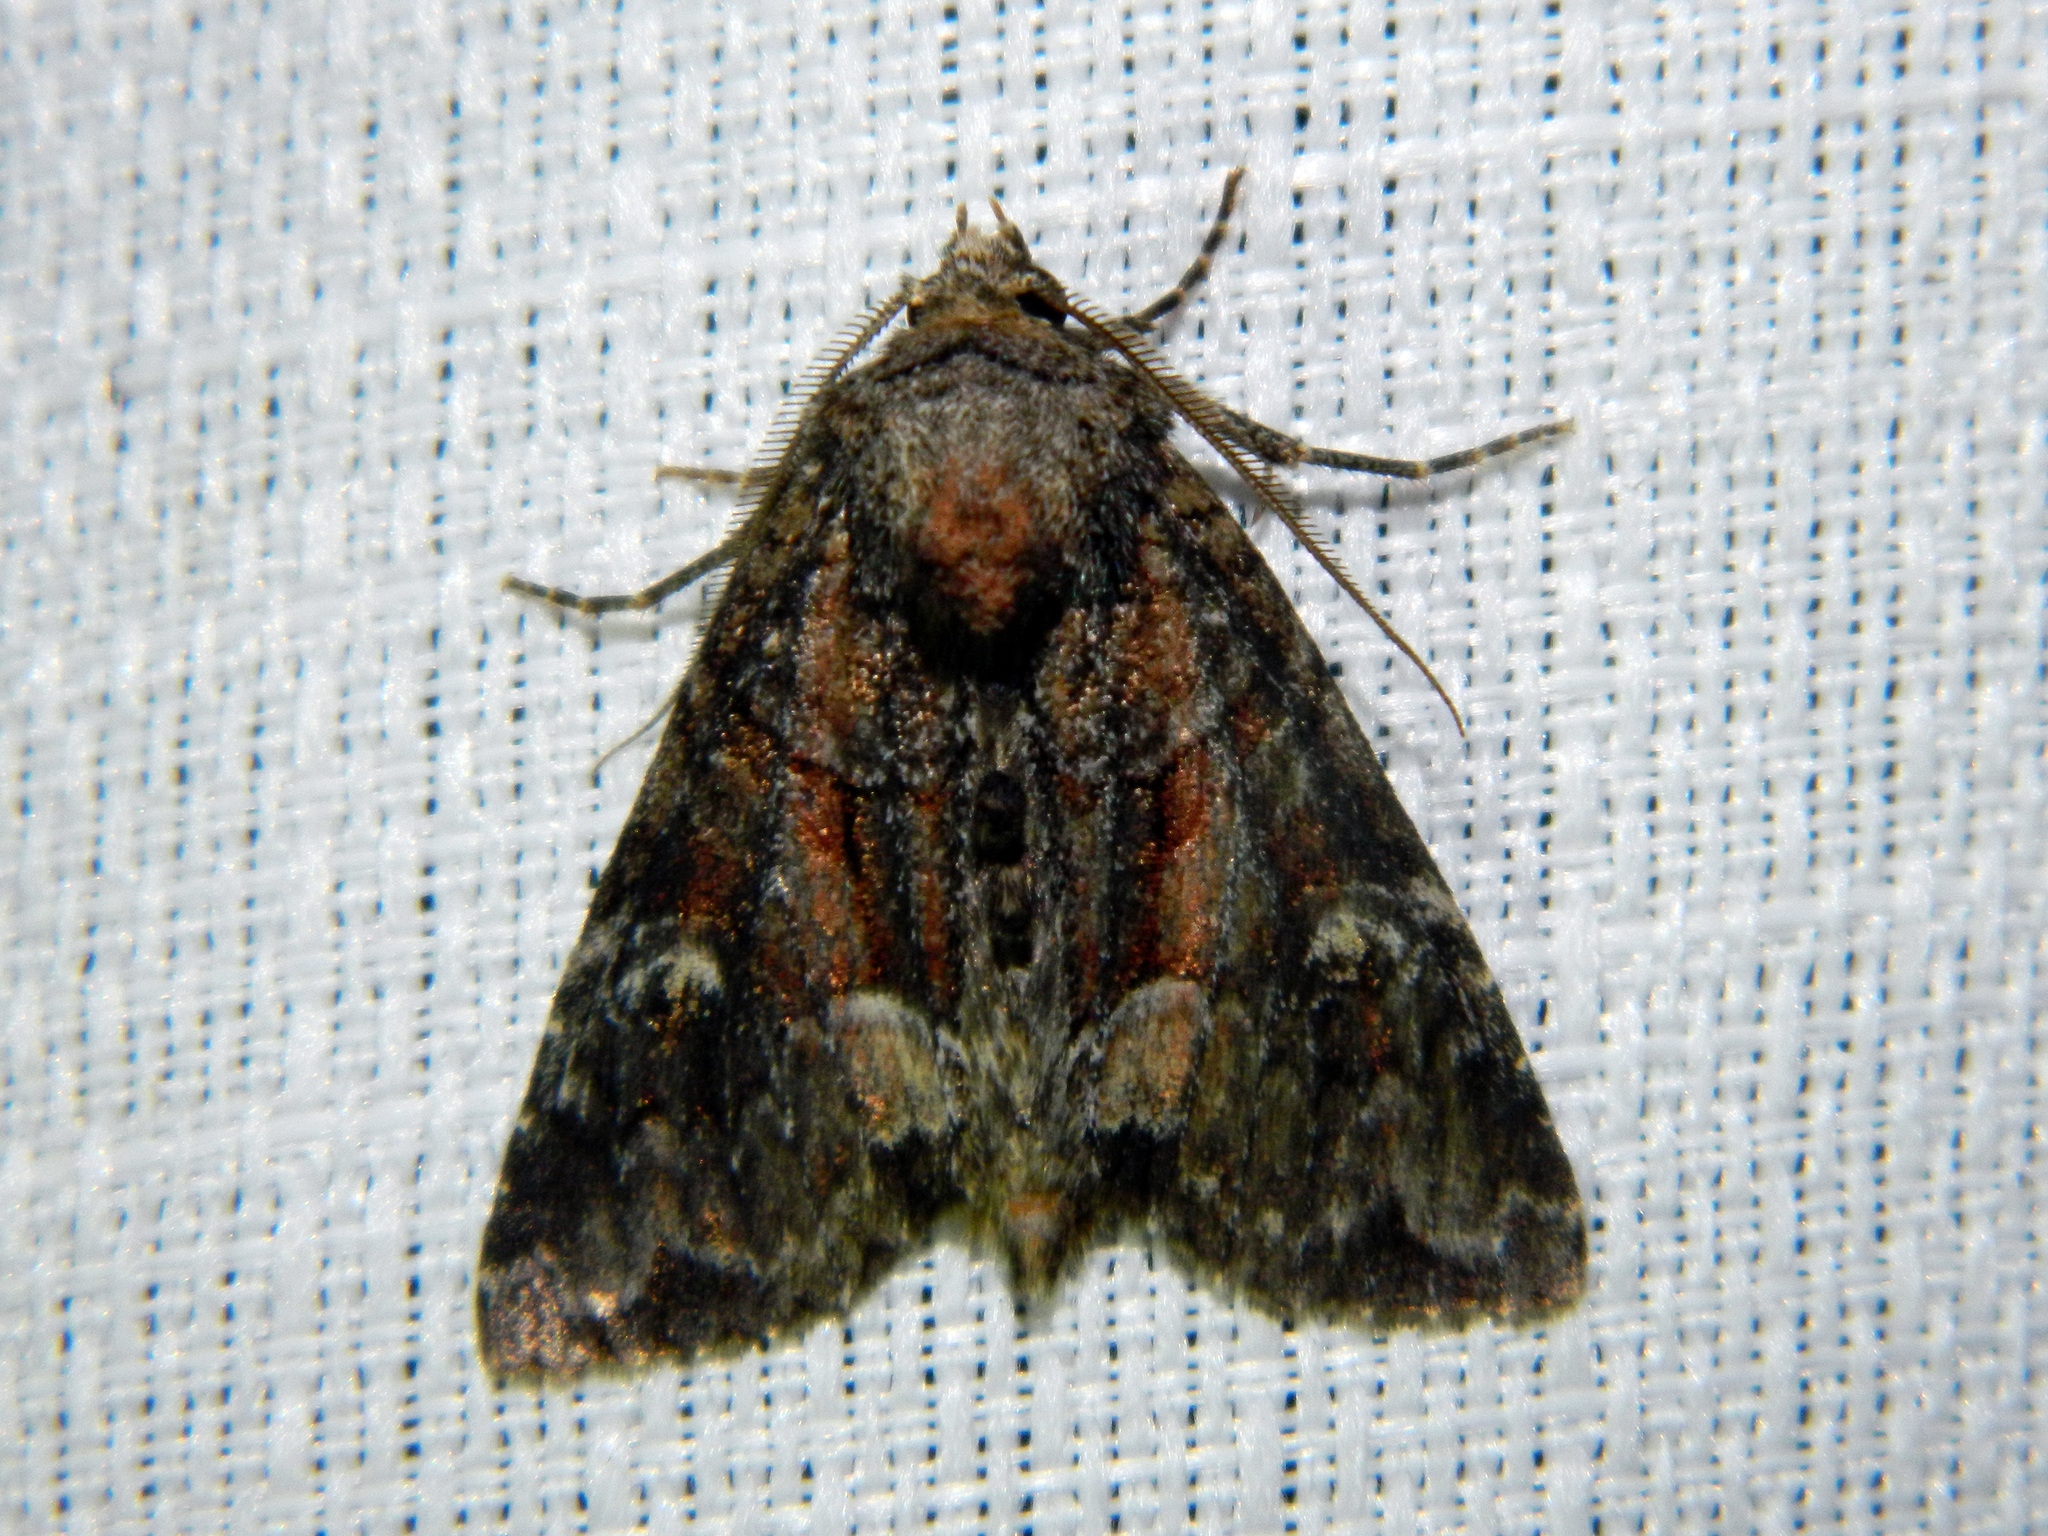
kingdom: Animalia
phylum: Arthropoda
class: Insecta
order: Lepidoptera
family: Noctuidae
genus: Fishia
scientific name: Fishia illocata
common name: Wandering brocade moth
